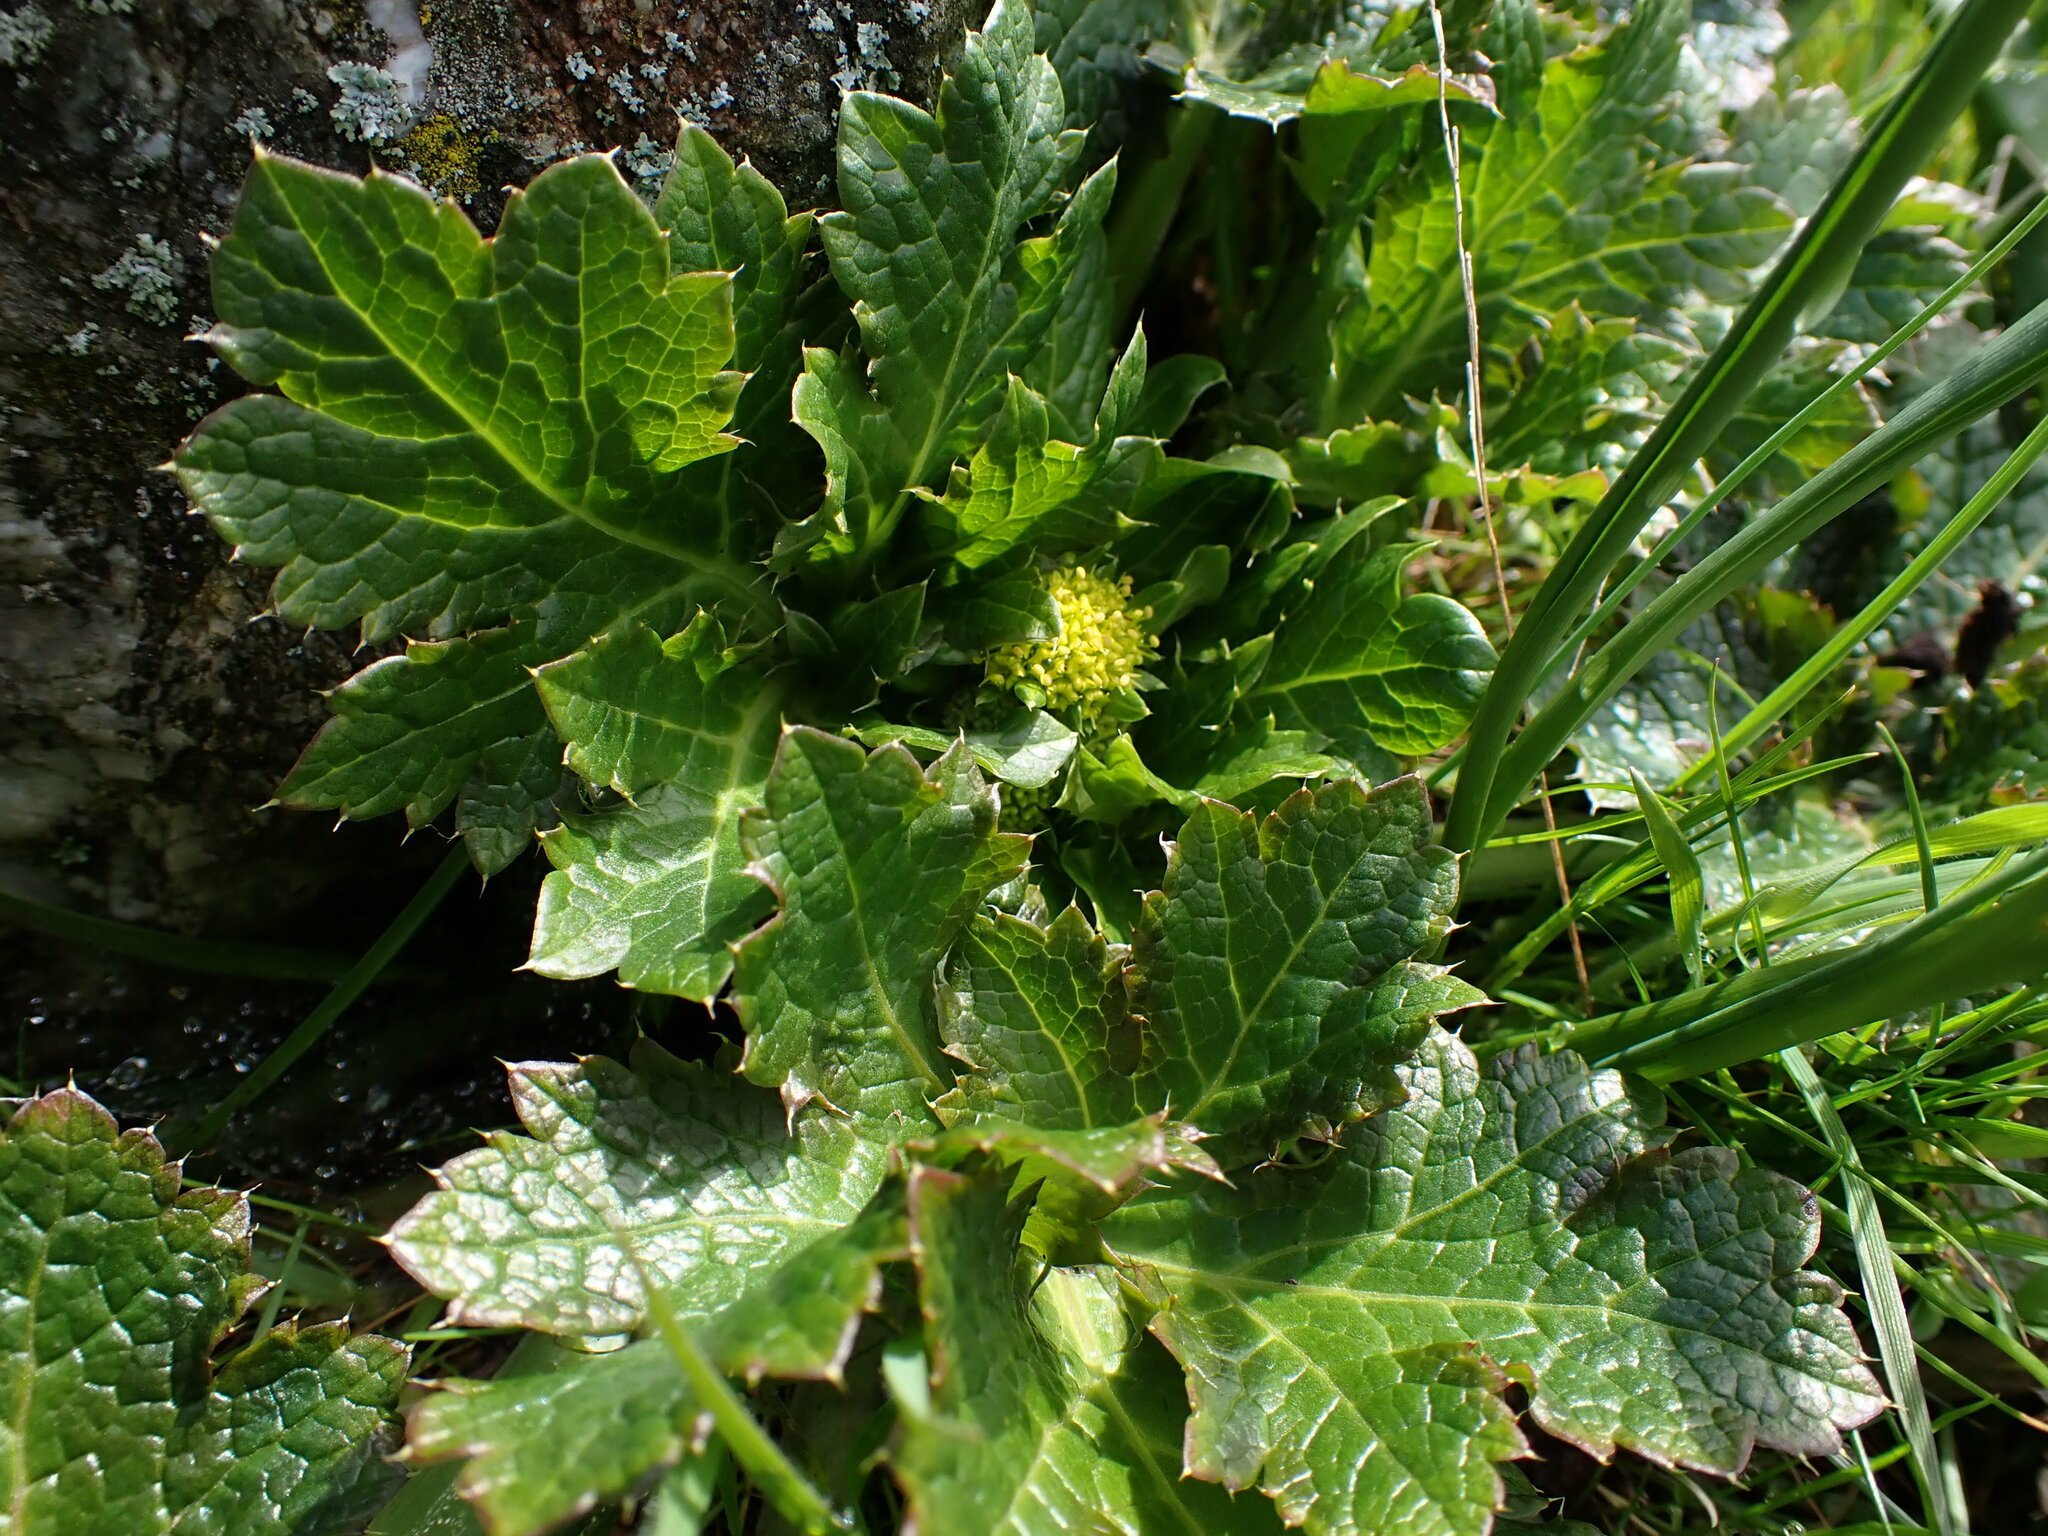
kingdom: Plantae
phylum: Tracheophyta
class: Magnoliopsida
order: Apiales
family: Apiaceae
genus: Sanicula
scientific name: Sanicula crassicaulis
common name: Western snakeroot
